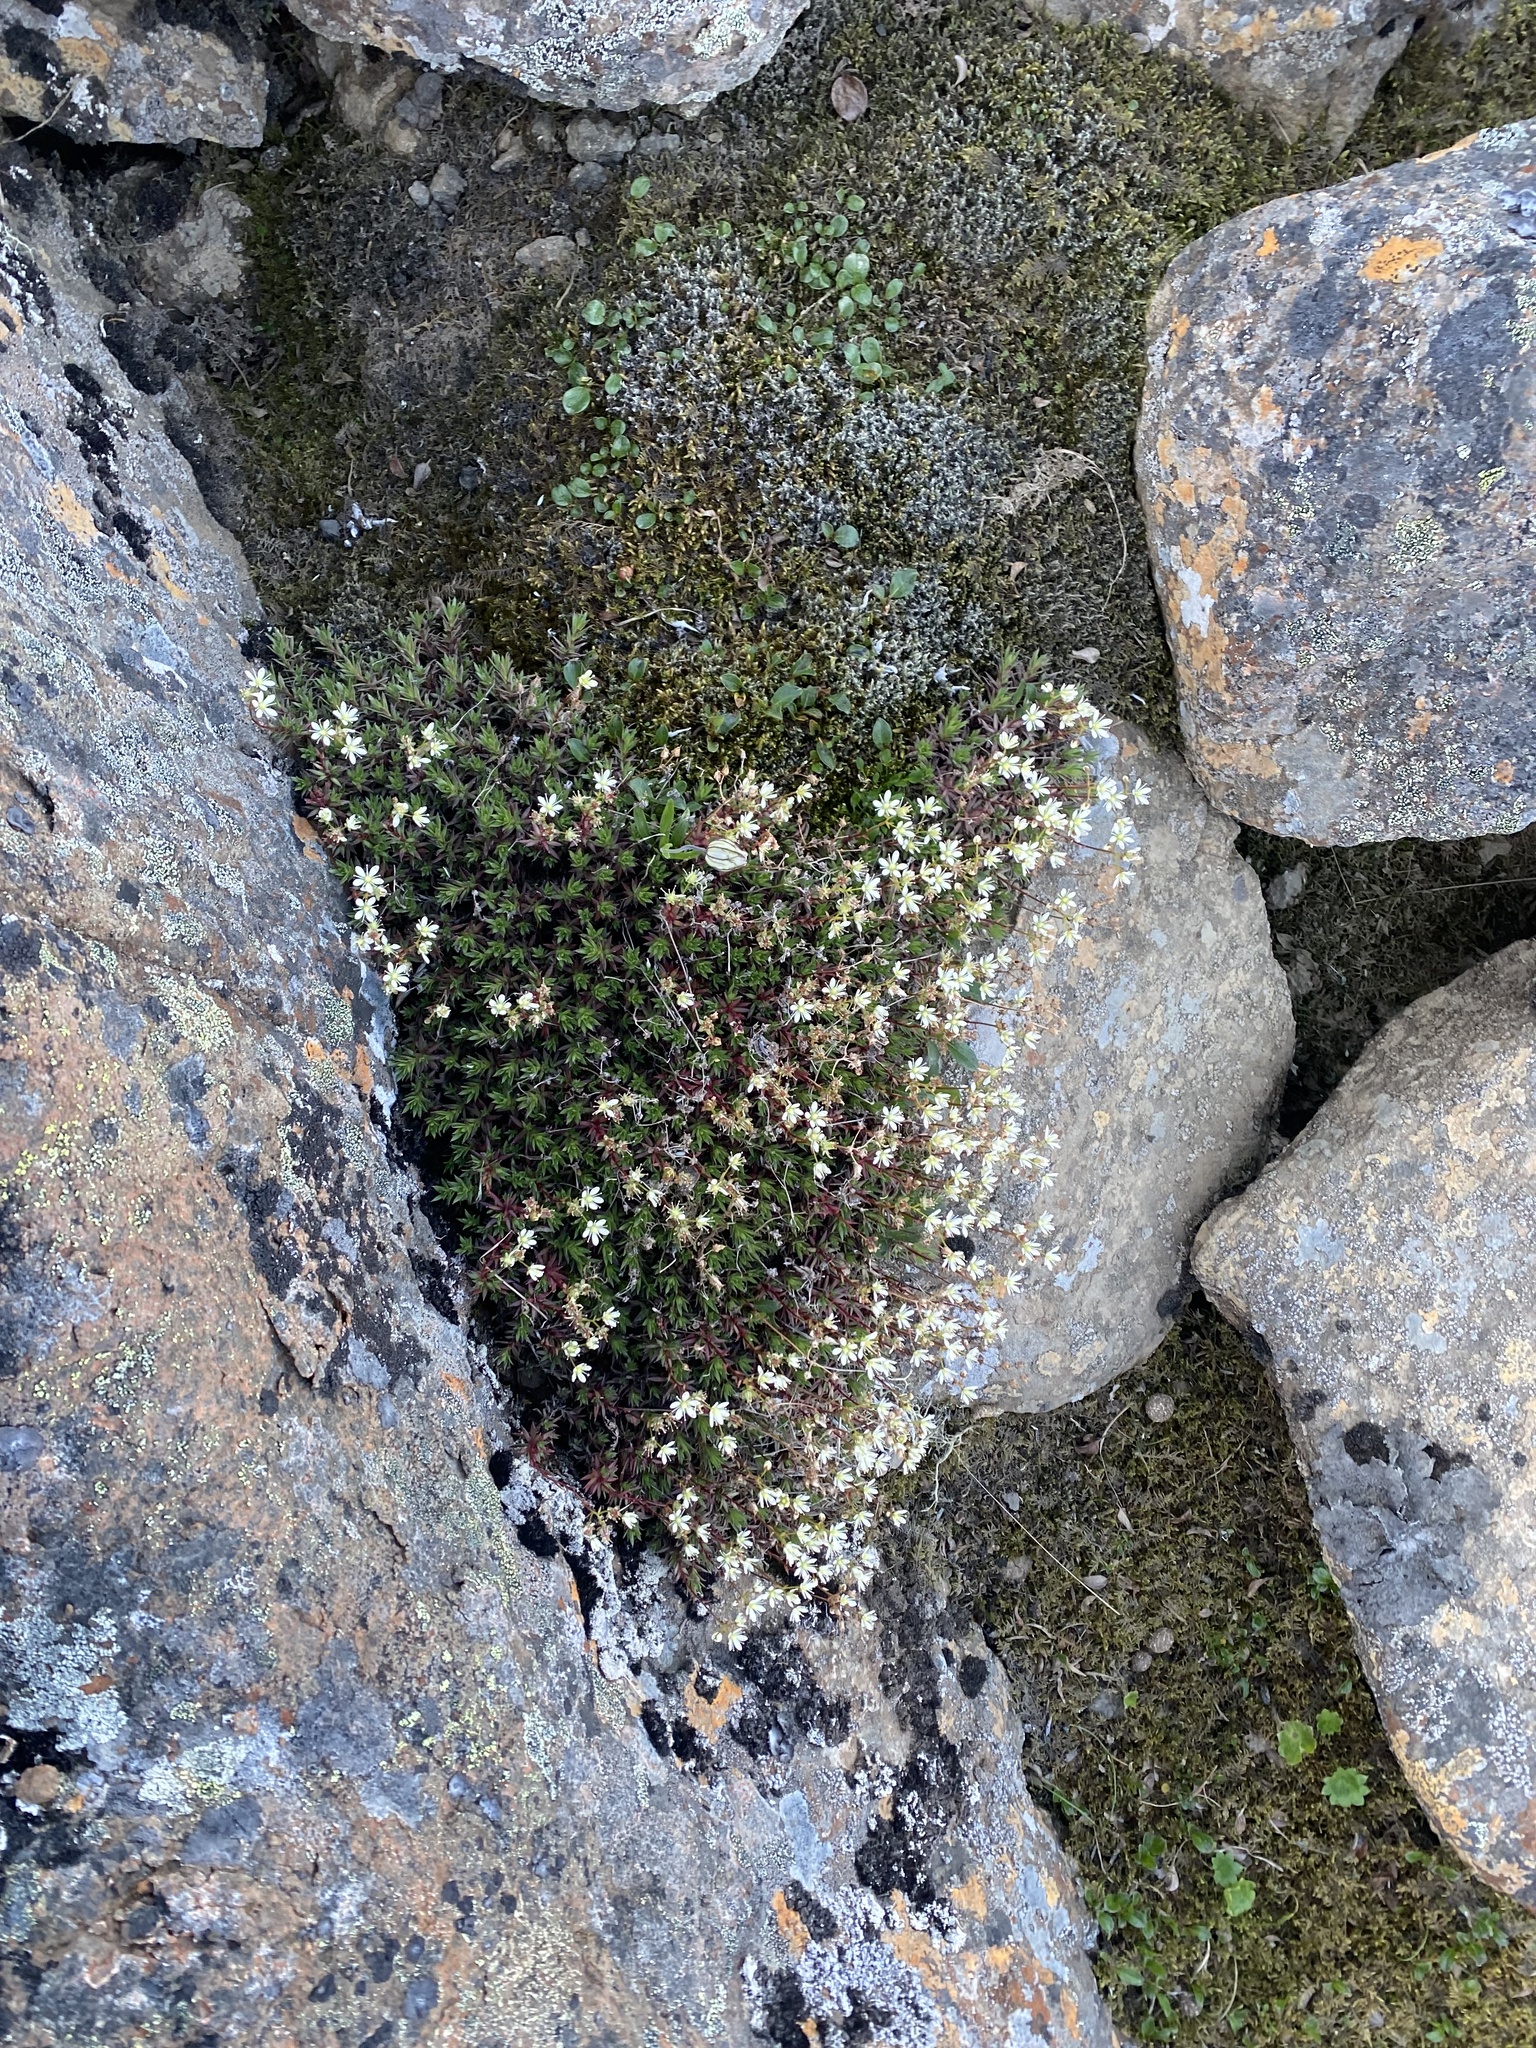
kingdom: Plantae
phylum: Tracheophyta
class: Magnoliopsida
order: Saxifragales
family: Saxifragaceae
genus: Saxifraga
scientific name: Saxifraga
